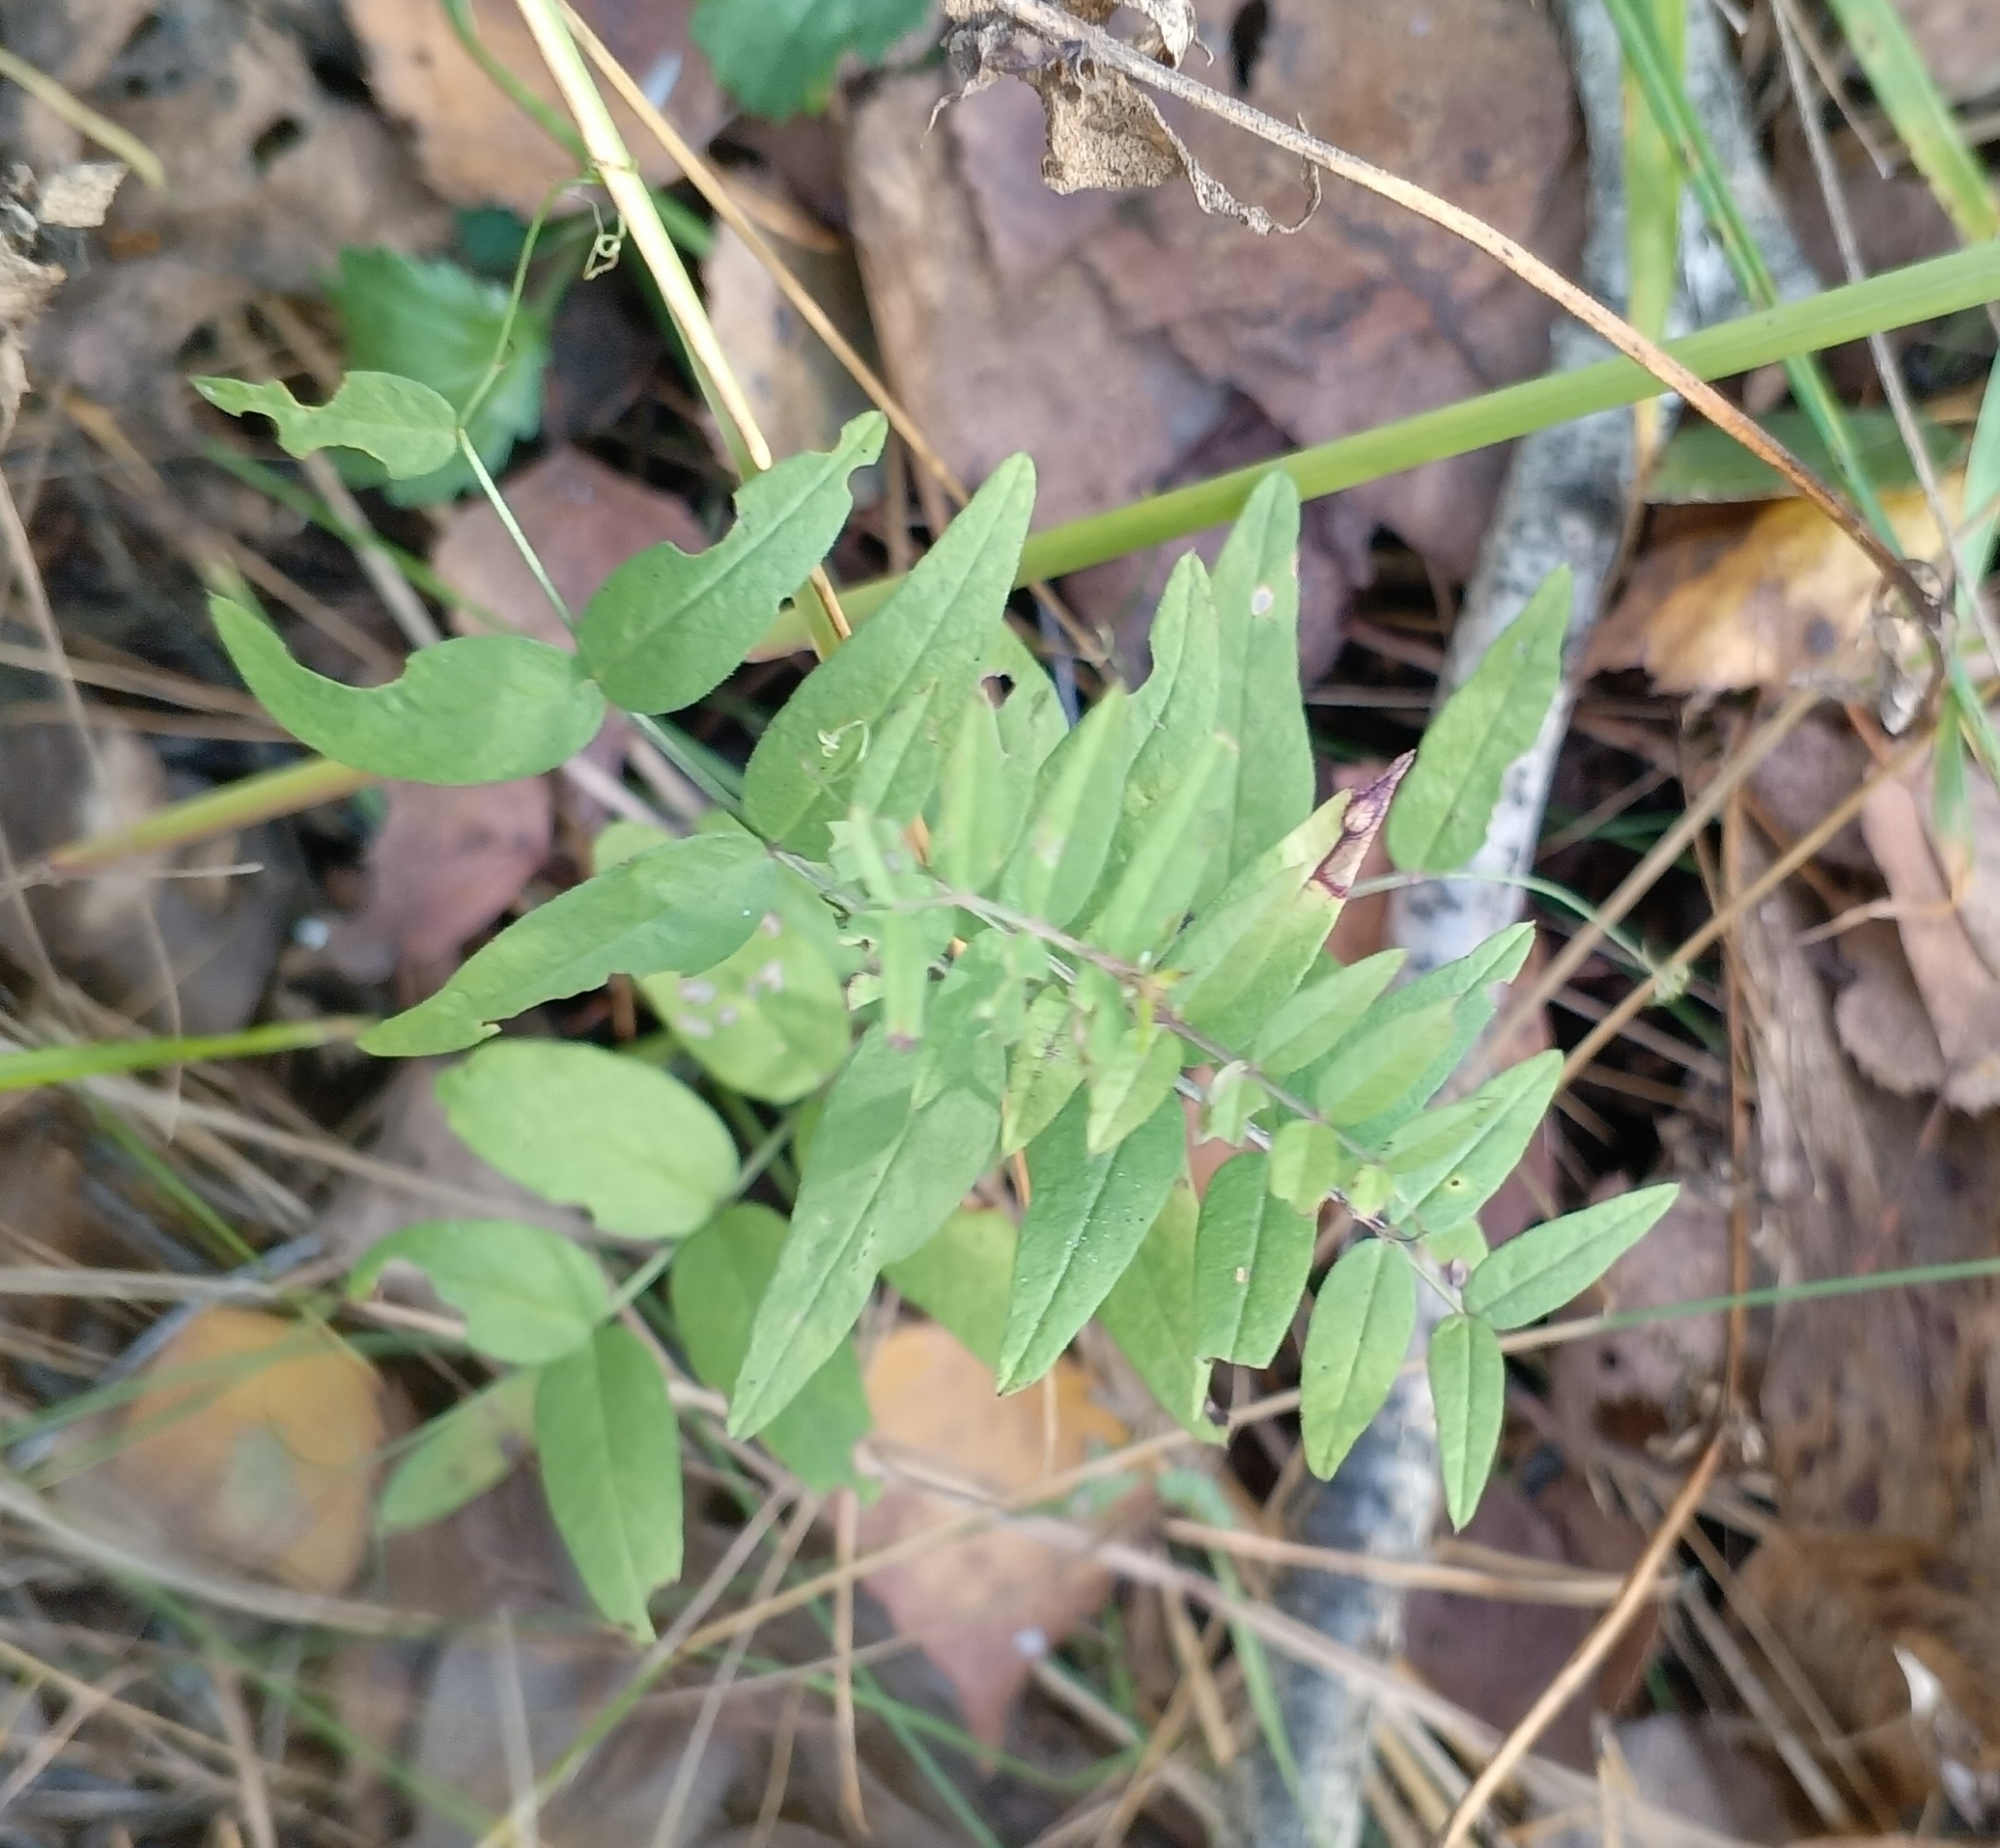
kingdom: Plantae
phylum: Tracheophyta
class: Magnoliopsida
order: Fabales
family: Fabaceae
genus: Vicia
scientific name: Vicia sepium
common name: Bush vetch
